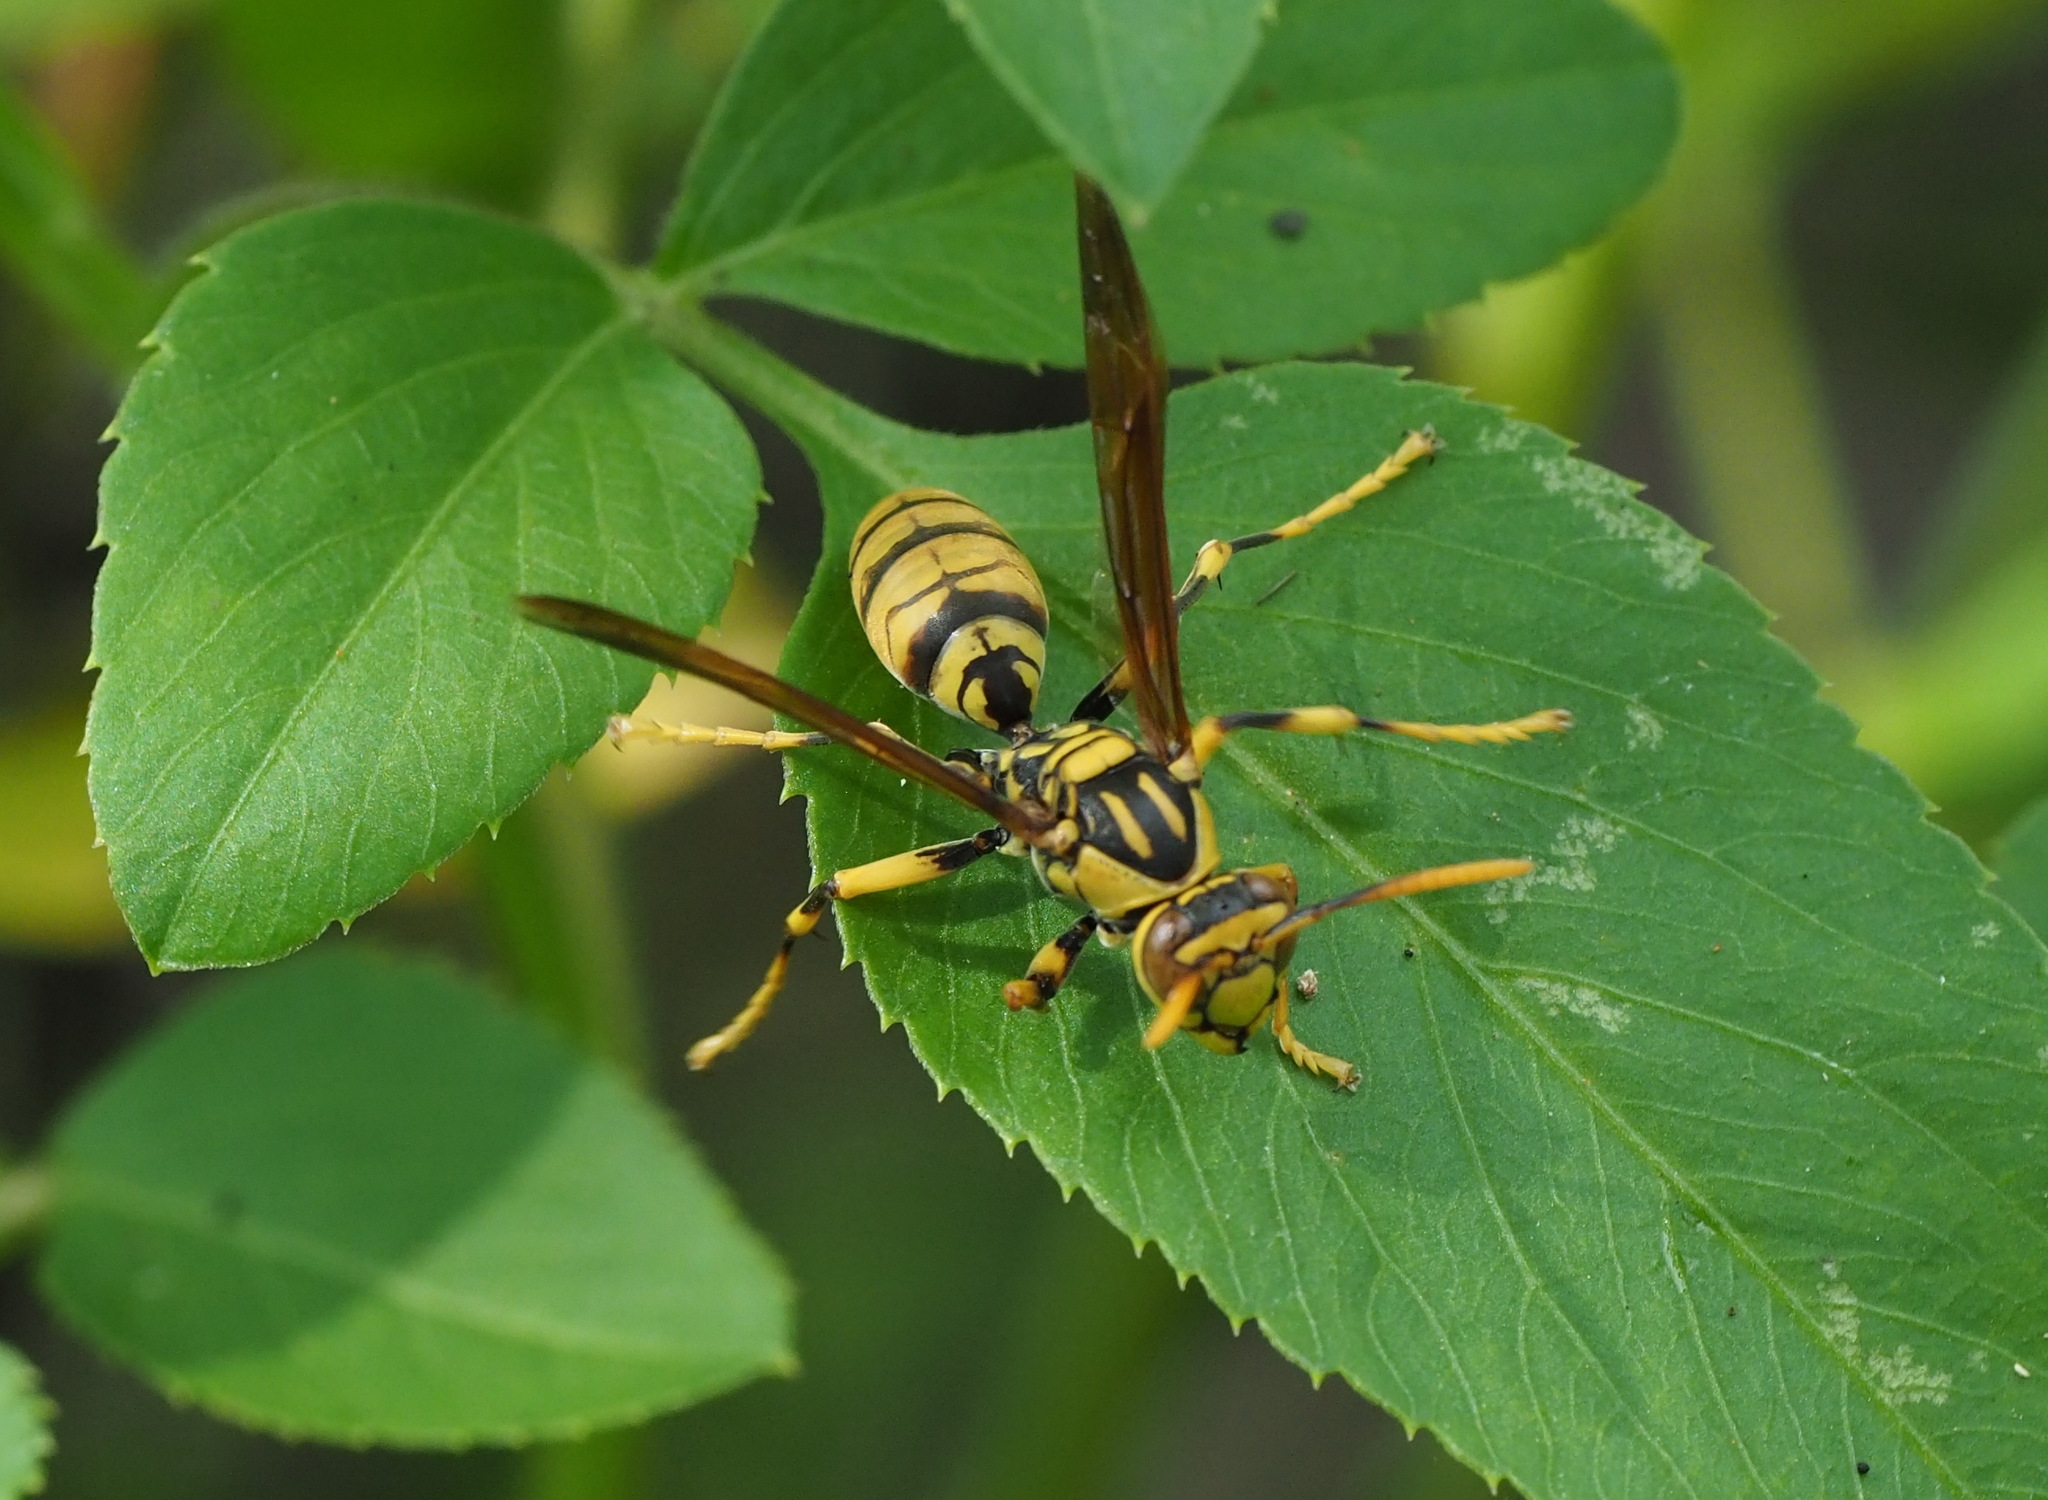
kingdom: Animalia
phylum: Arthropoda
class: Insecta
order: Hymenoptera
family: Eumenidae
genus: Polistes
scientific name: Polistes rothneyi
